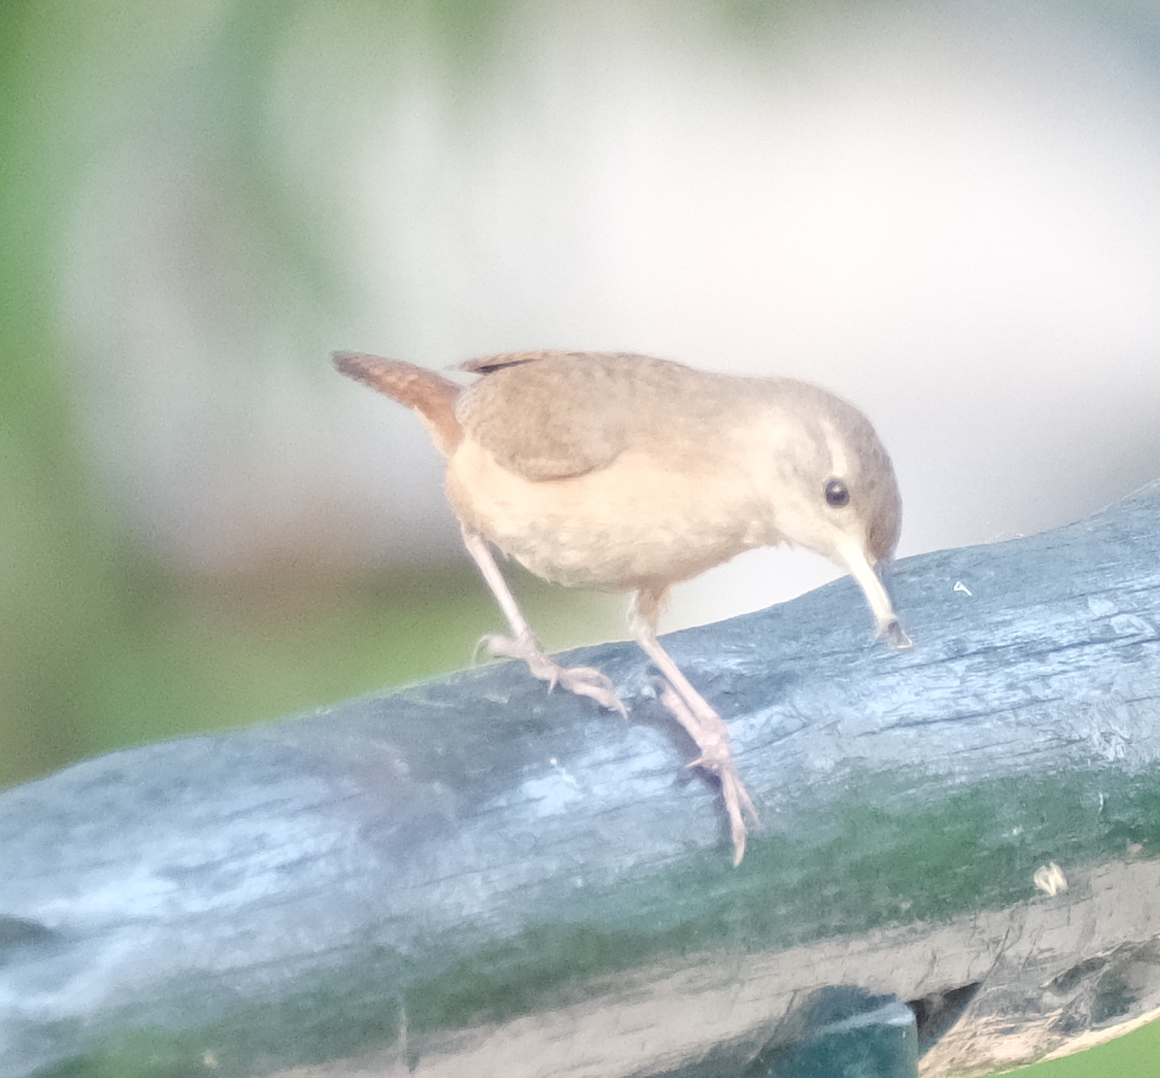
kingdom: Animalia
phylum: Chordata
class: Aves
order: Passeriformes
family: Troglodytidae
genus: Troglodytes
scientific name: Troglodytes aedon
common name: House wren
